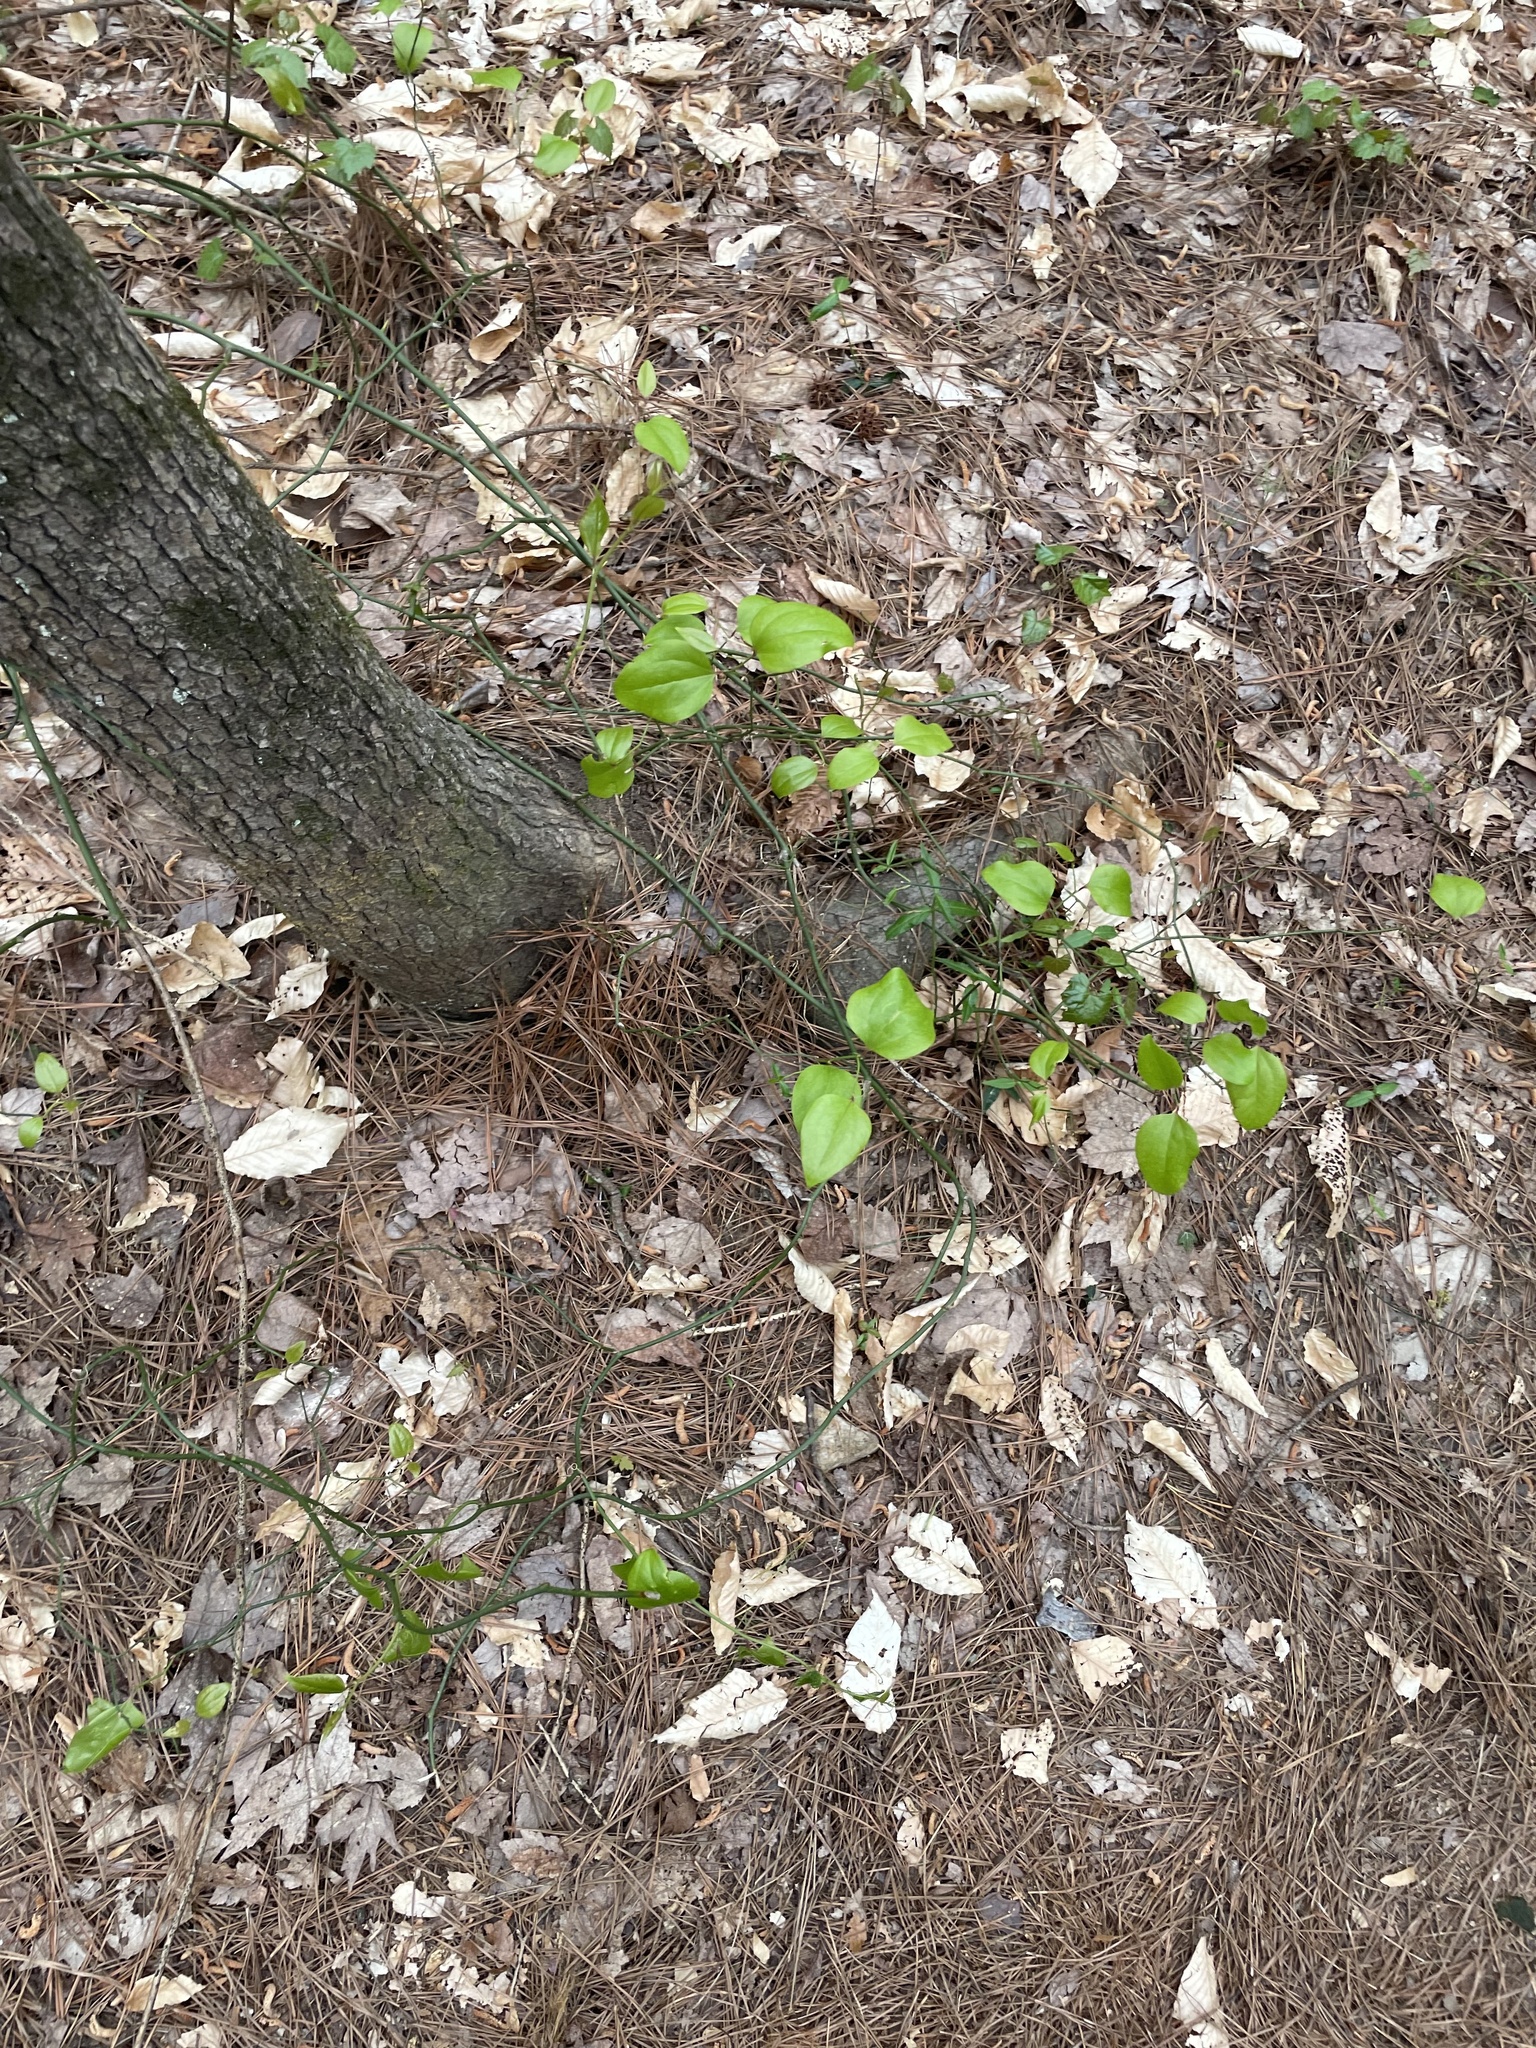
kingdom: Plantae
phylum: Tracheophyta
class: Liliopsida
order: Liliales
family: Smilacaceae
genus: Smilax
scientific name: Smilax rotundifolia
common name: Bullbriar
